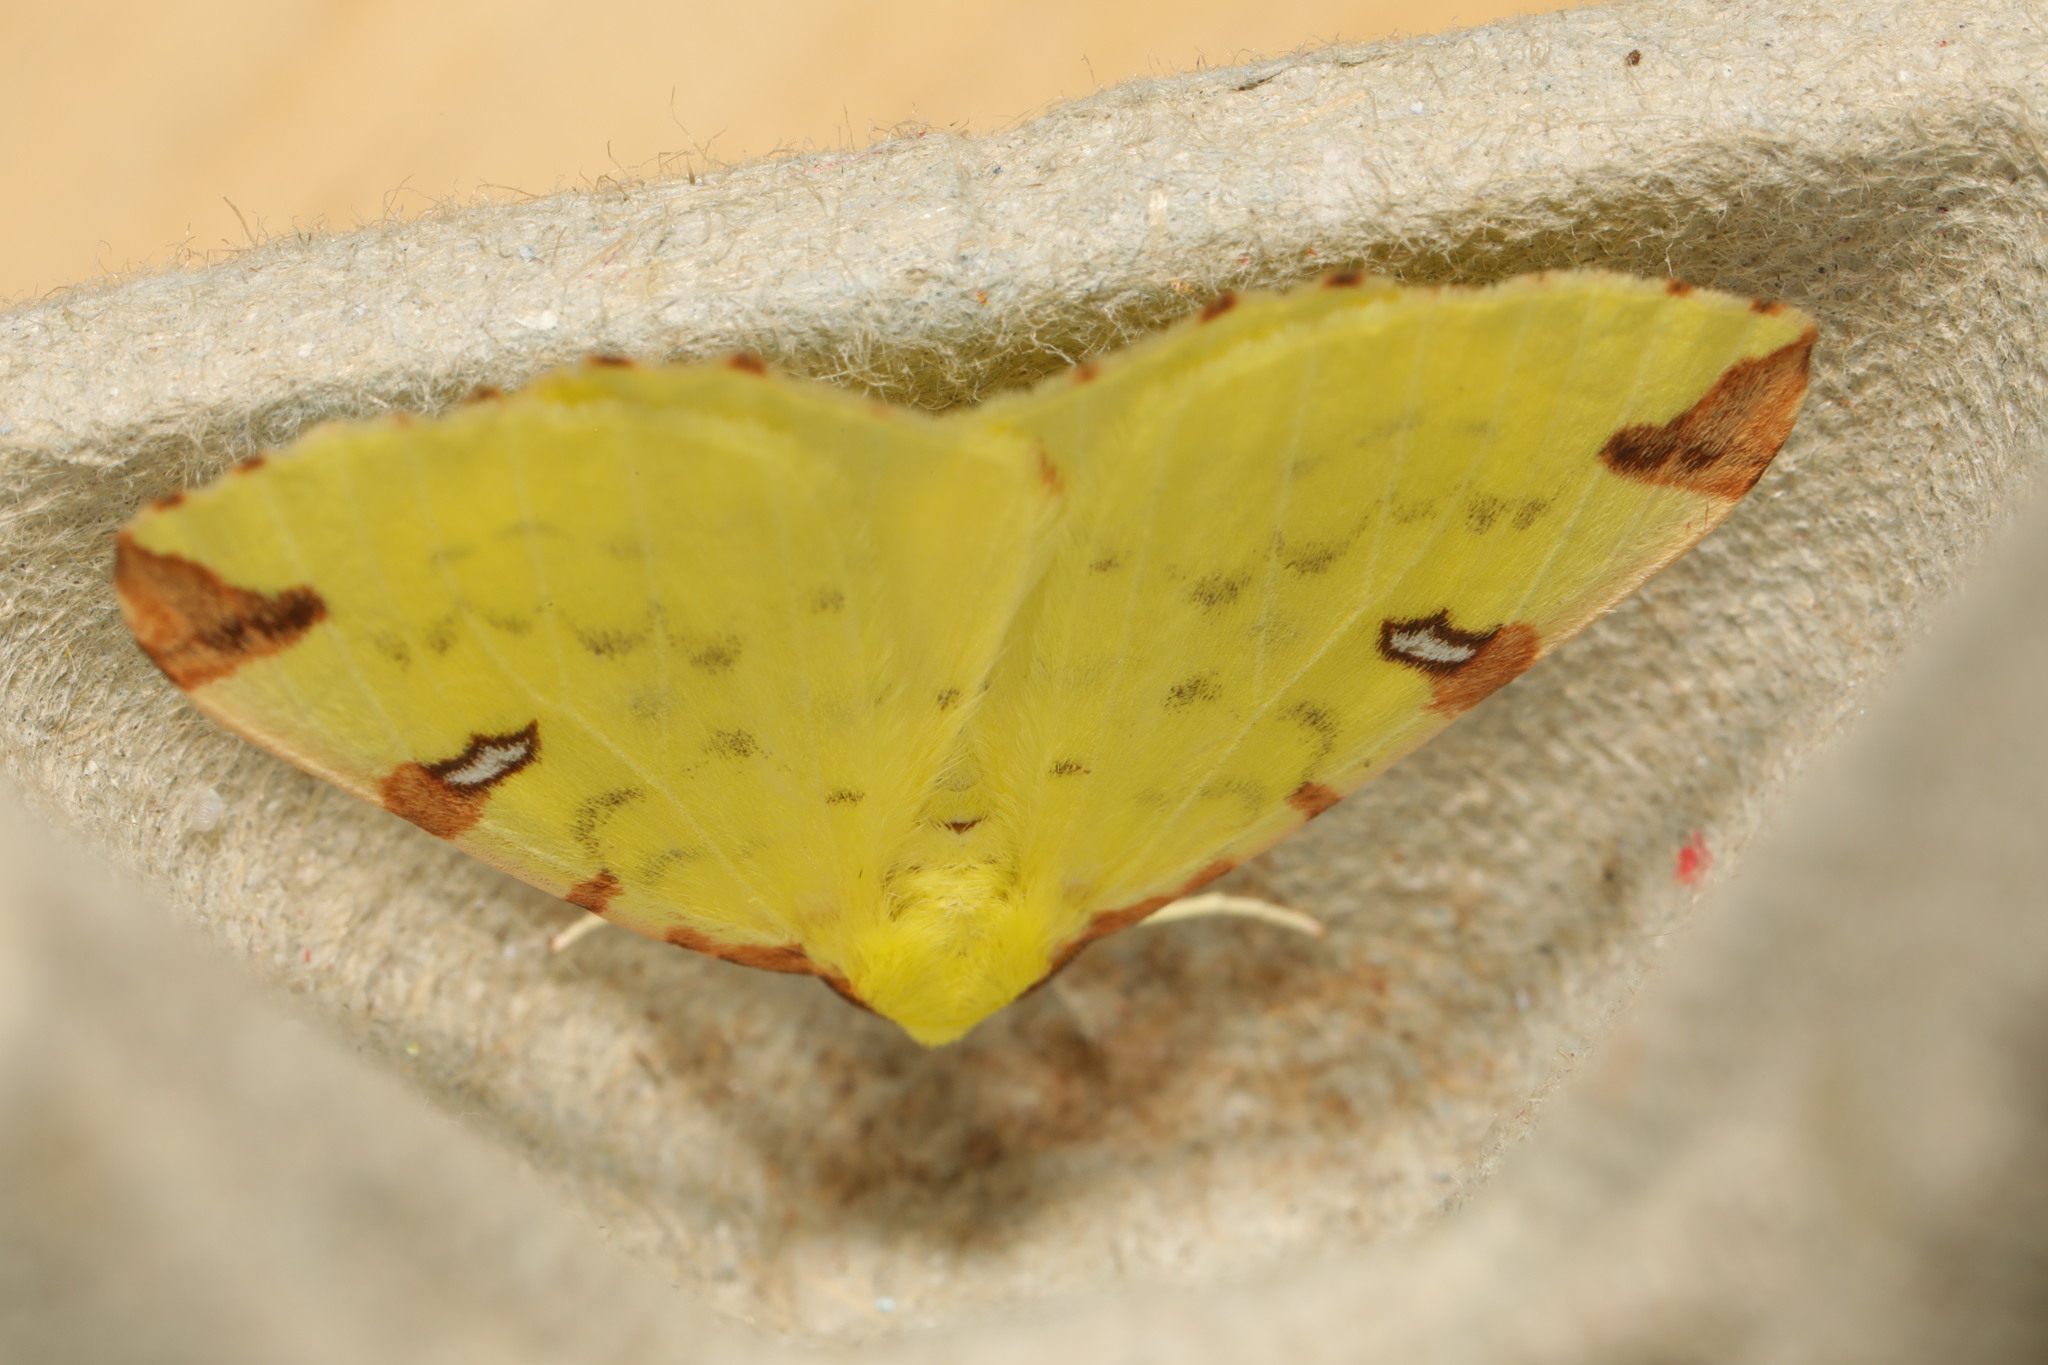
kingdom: Animalia
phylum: Arthropoda
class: Insecta
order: Lepidoptera
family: Geometridae
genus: Opisthograptis
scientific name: Opisthograptis luteolata
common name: Brimstone moth
